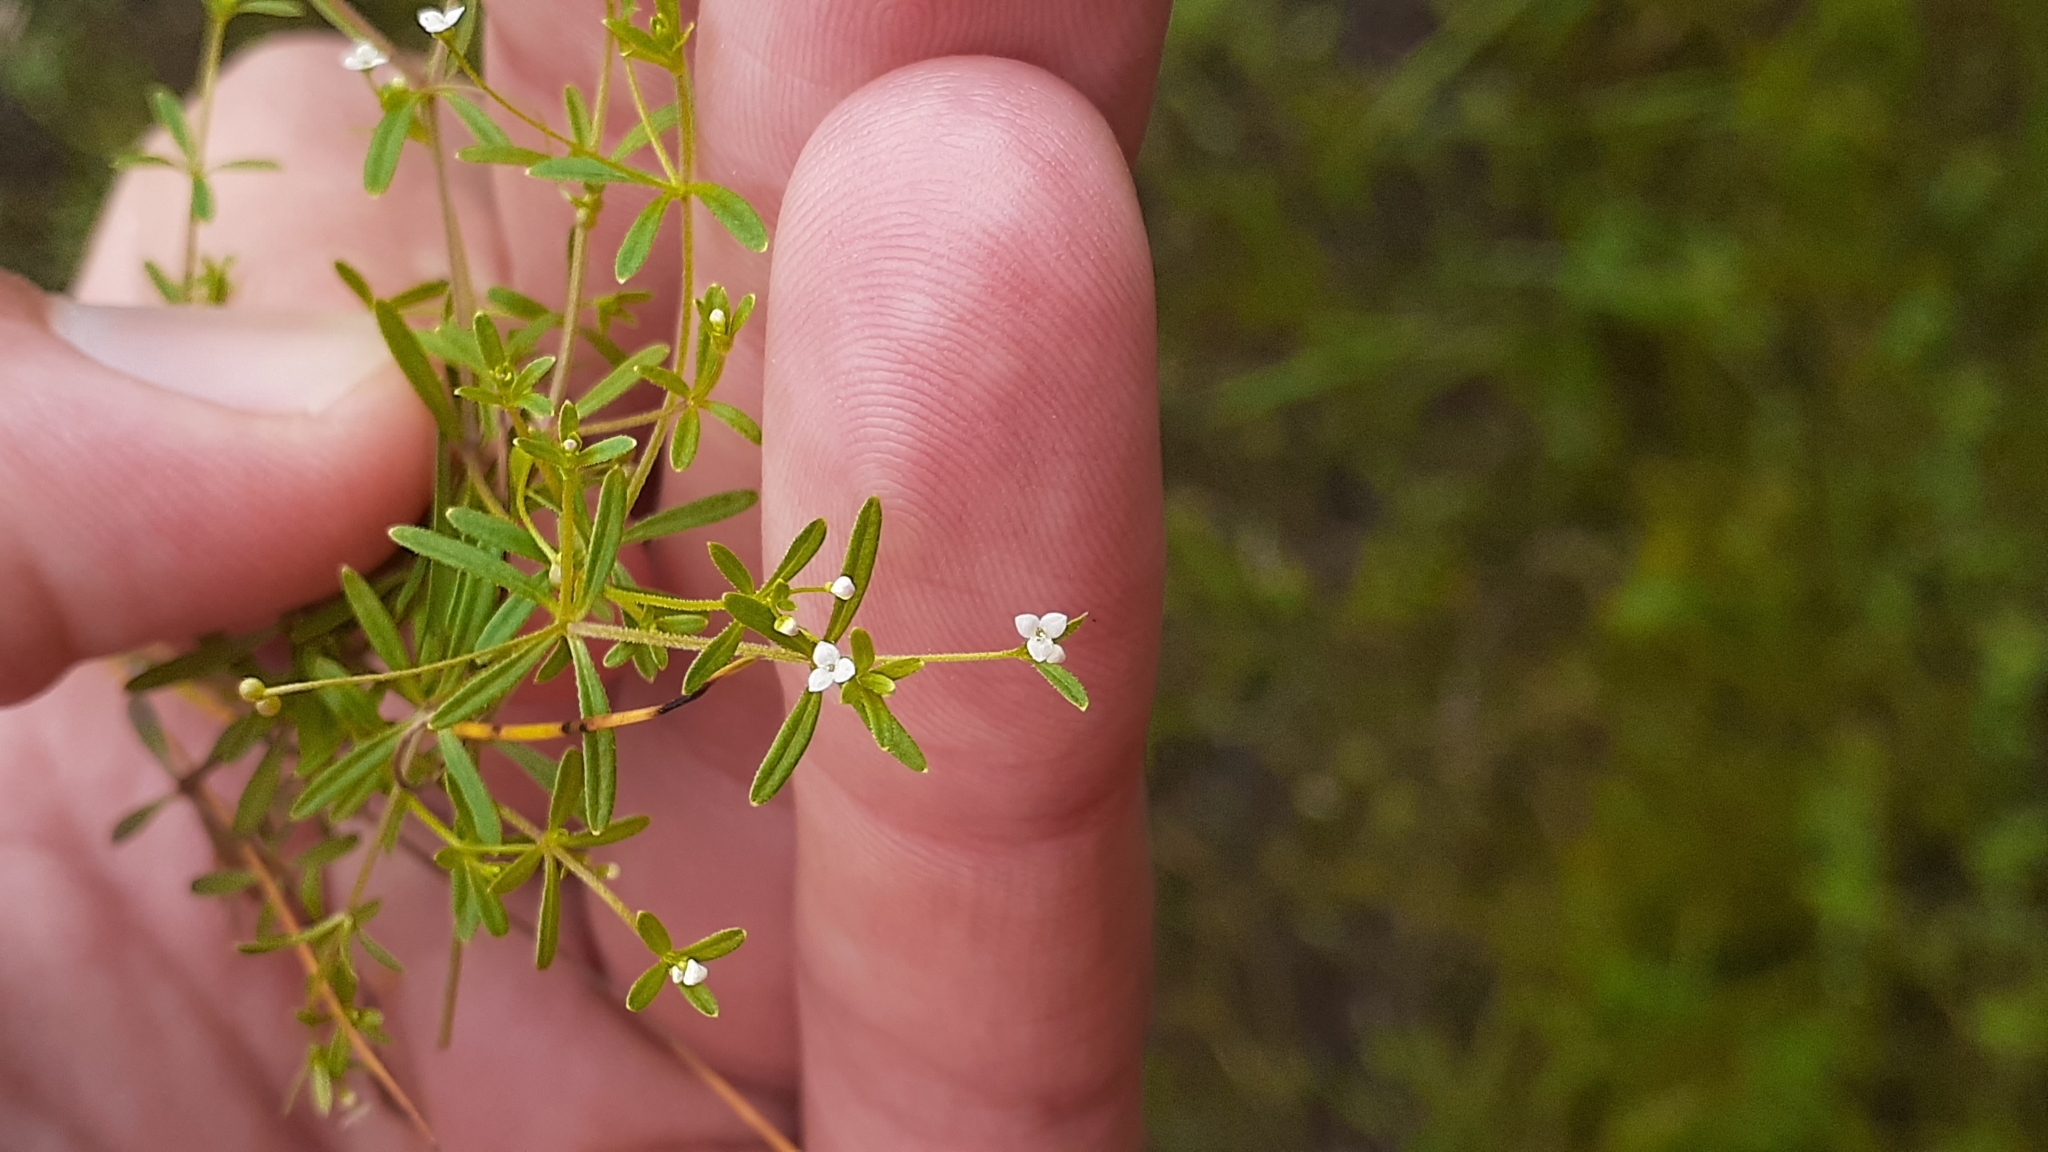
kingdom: Plantae
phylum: Tracheophyta
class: Magnoliopsida
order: Gentianales
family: Rubiaceae
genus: Galium
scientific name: Galium trifidum
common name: Small bedstraw
